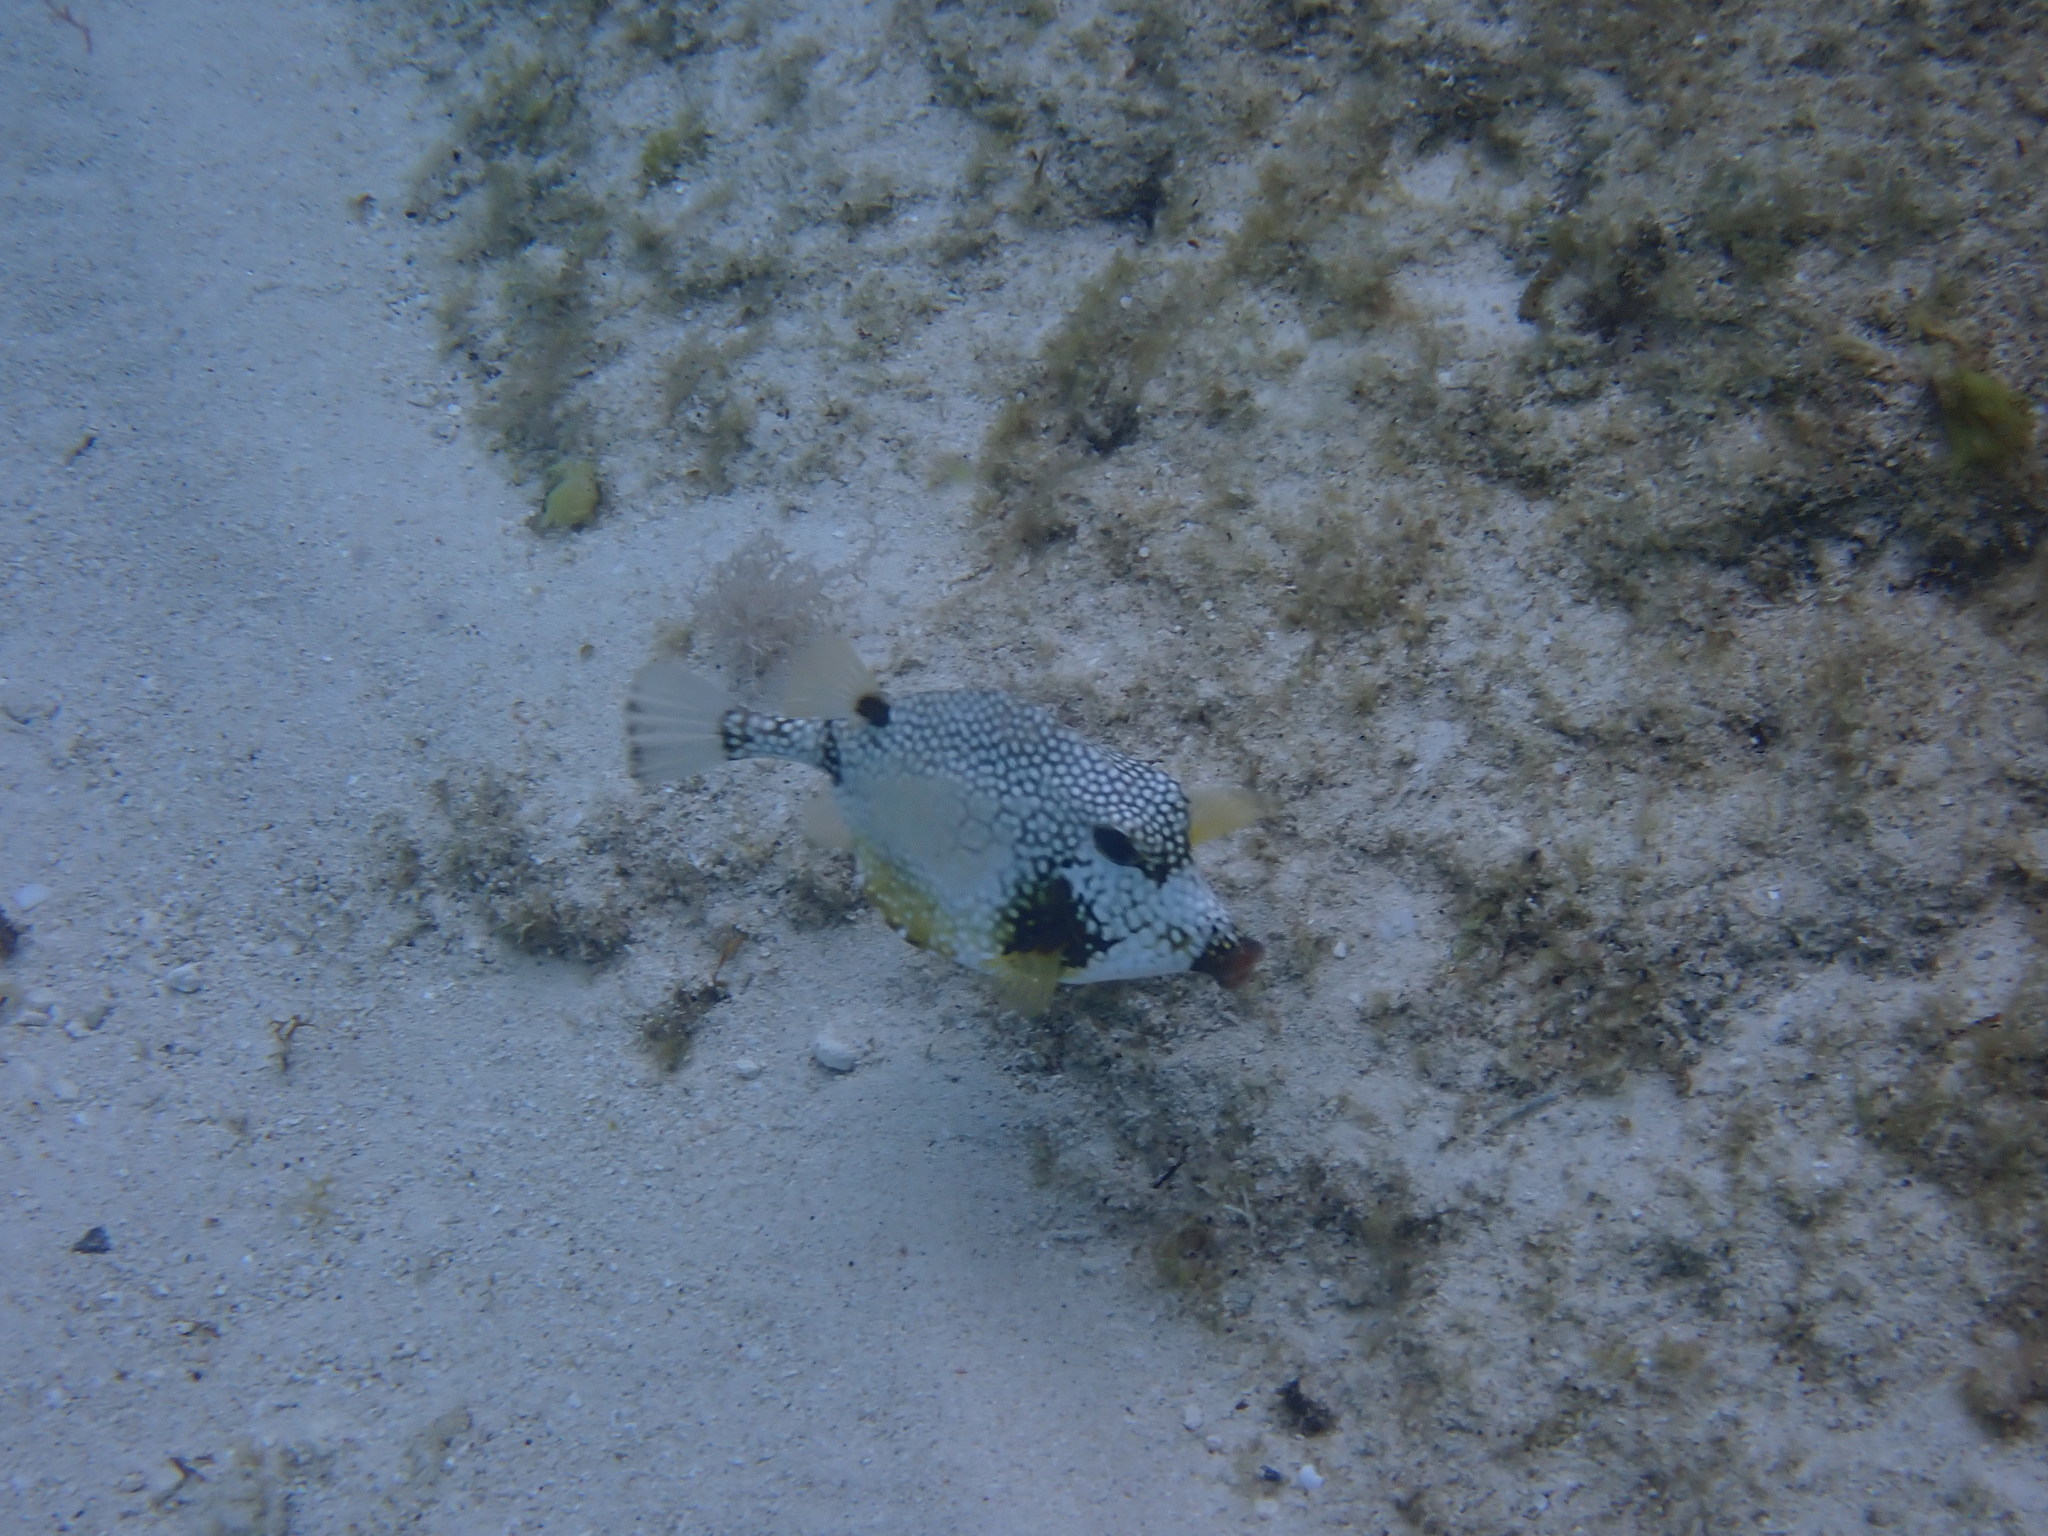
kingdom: Animalia
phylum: Chordata
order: Tetraodontiformes
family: Ostraciidae
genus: Lactophrys
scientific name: Lactophrys triqueter
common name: Smooth trunkfish
